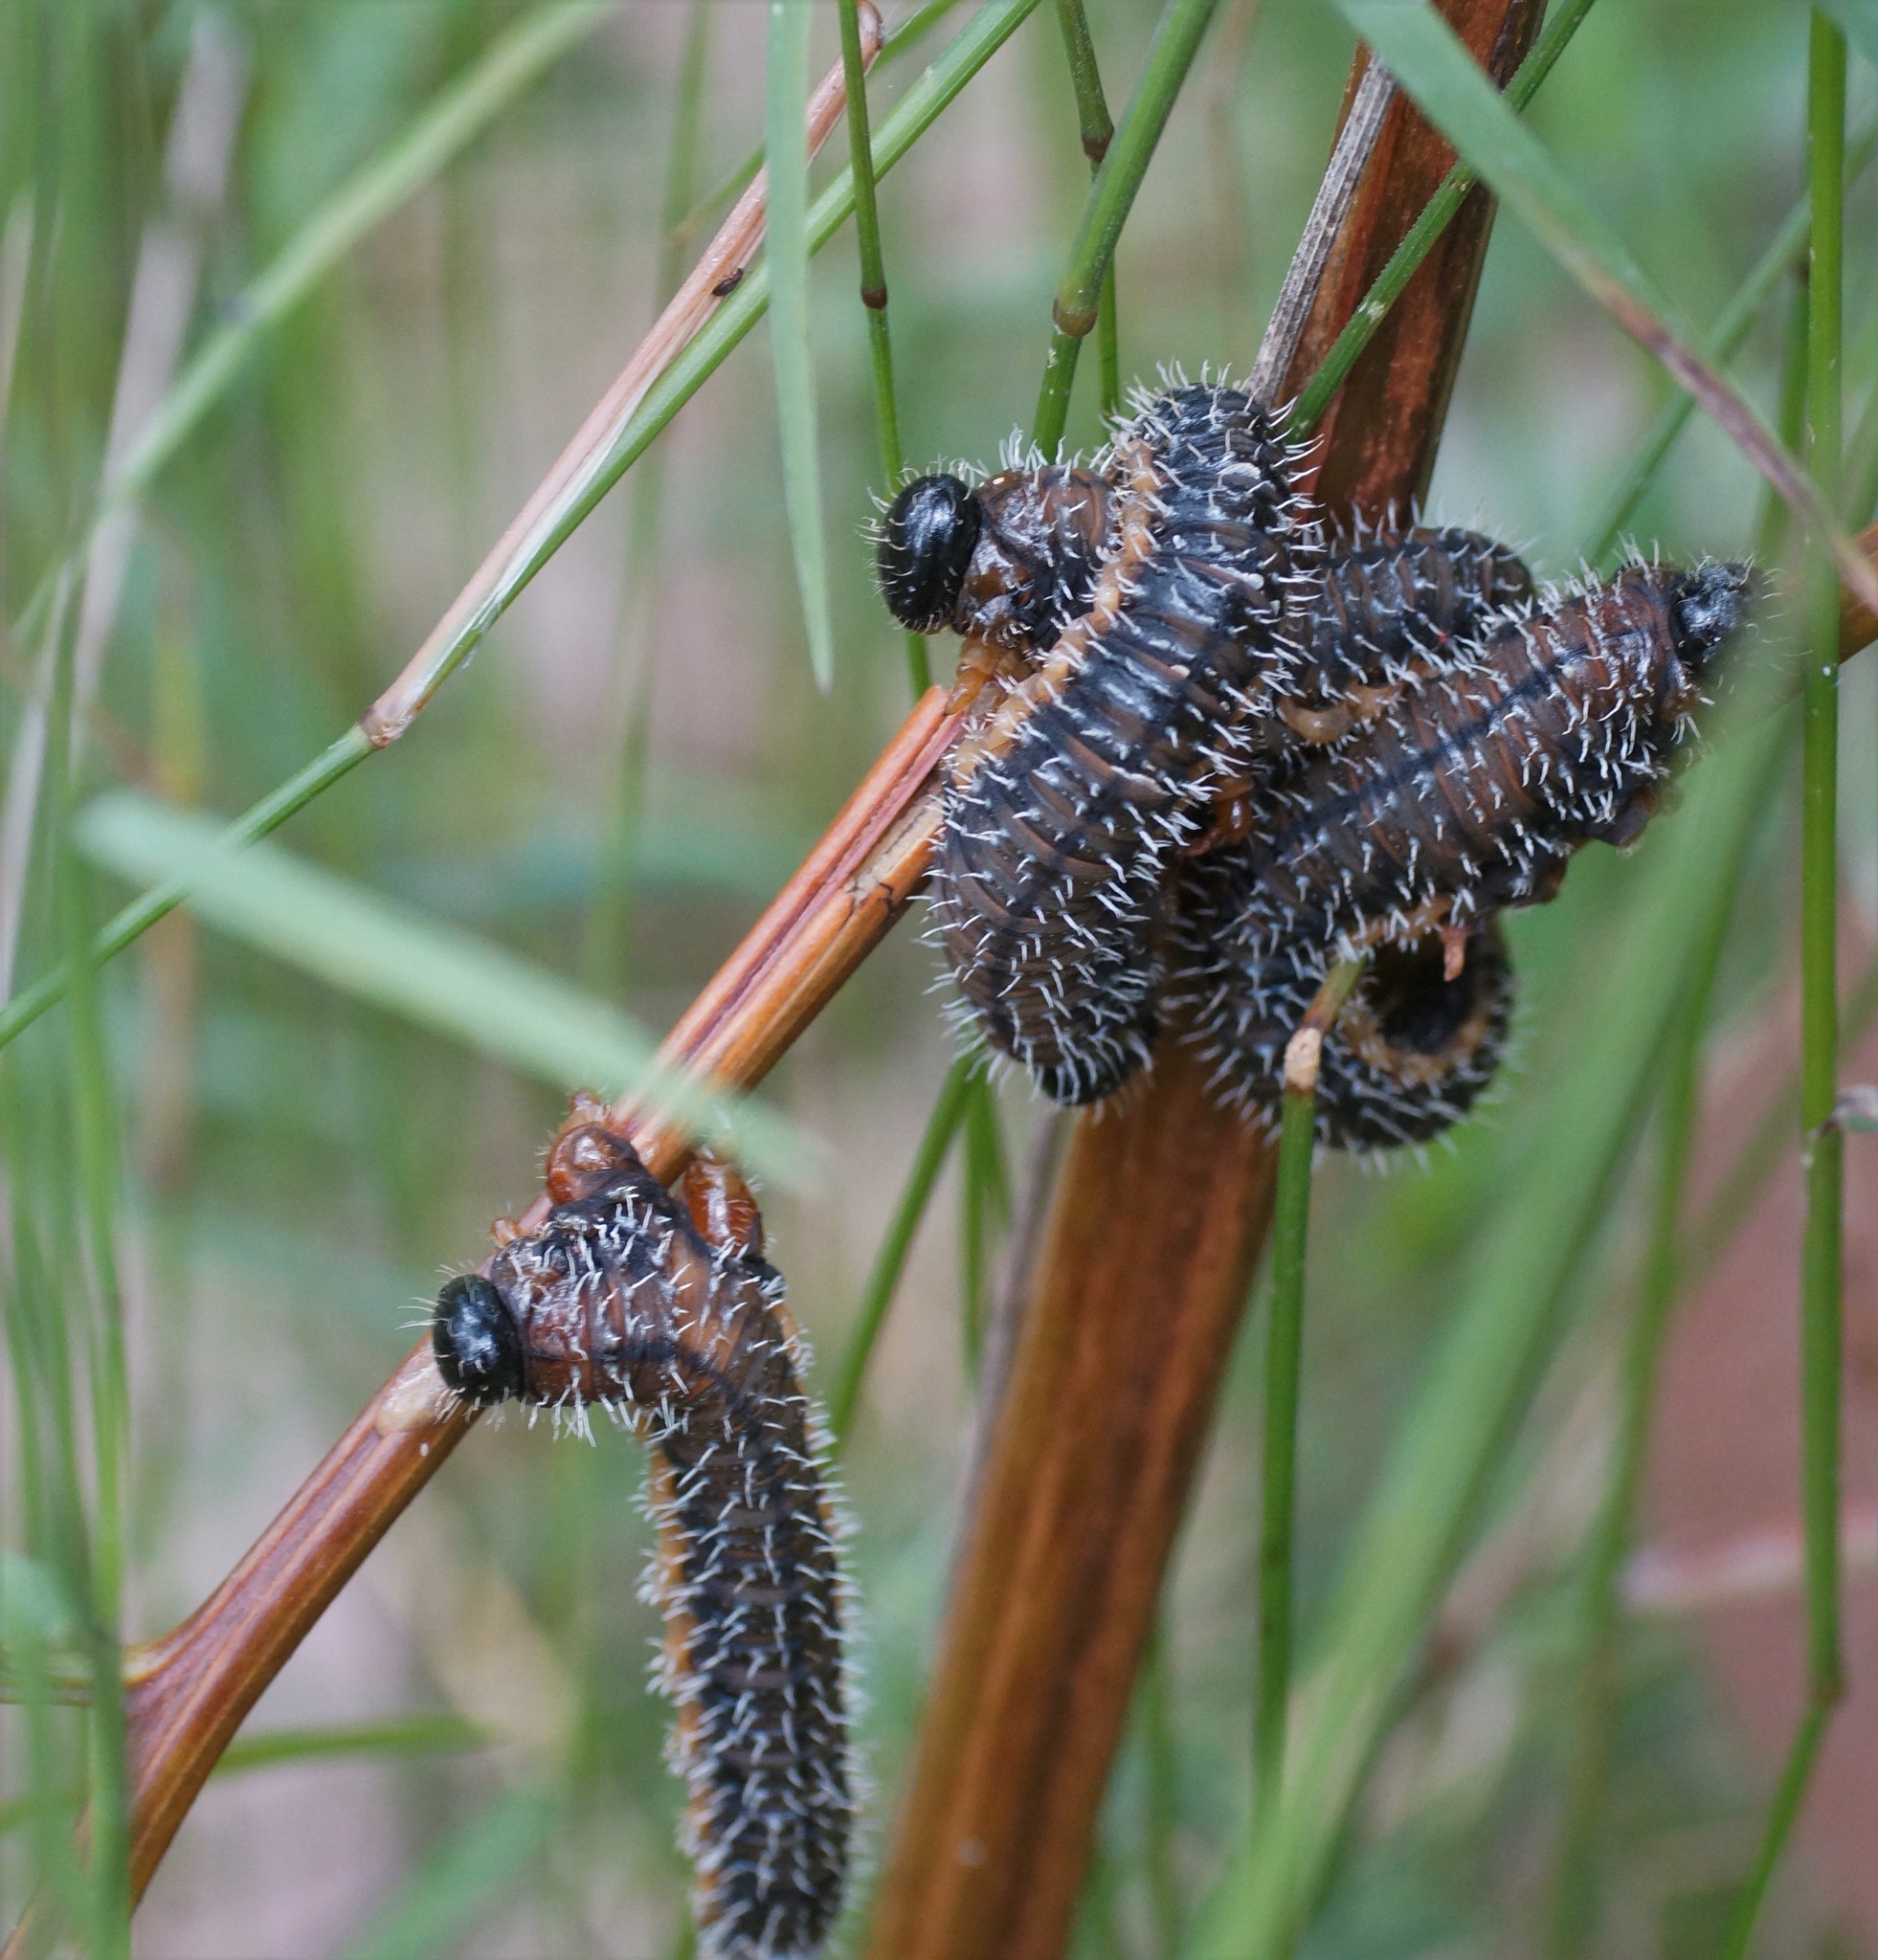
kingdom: Animalia
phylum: Arthropoda
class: Insecta
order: Hymenoptera
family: Pergidae
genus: Perga
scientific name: Perga affinis
